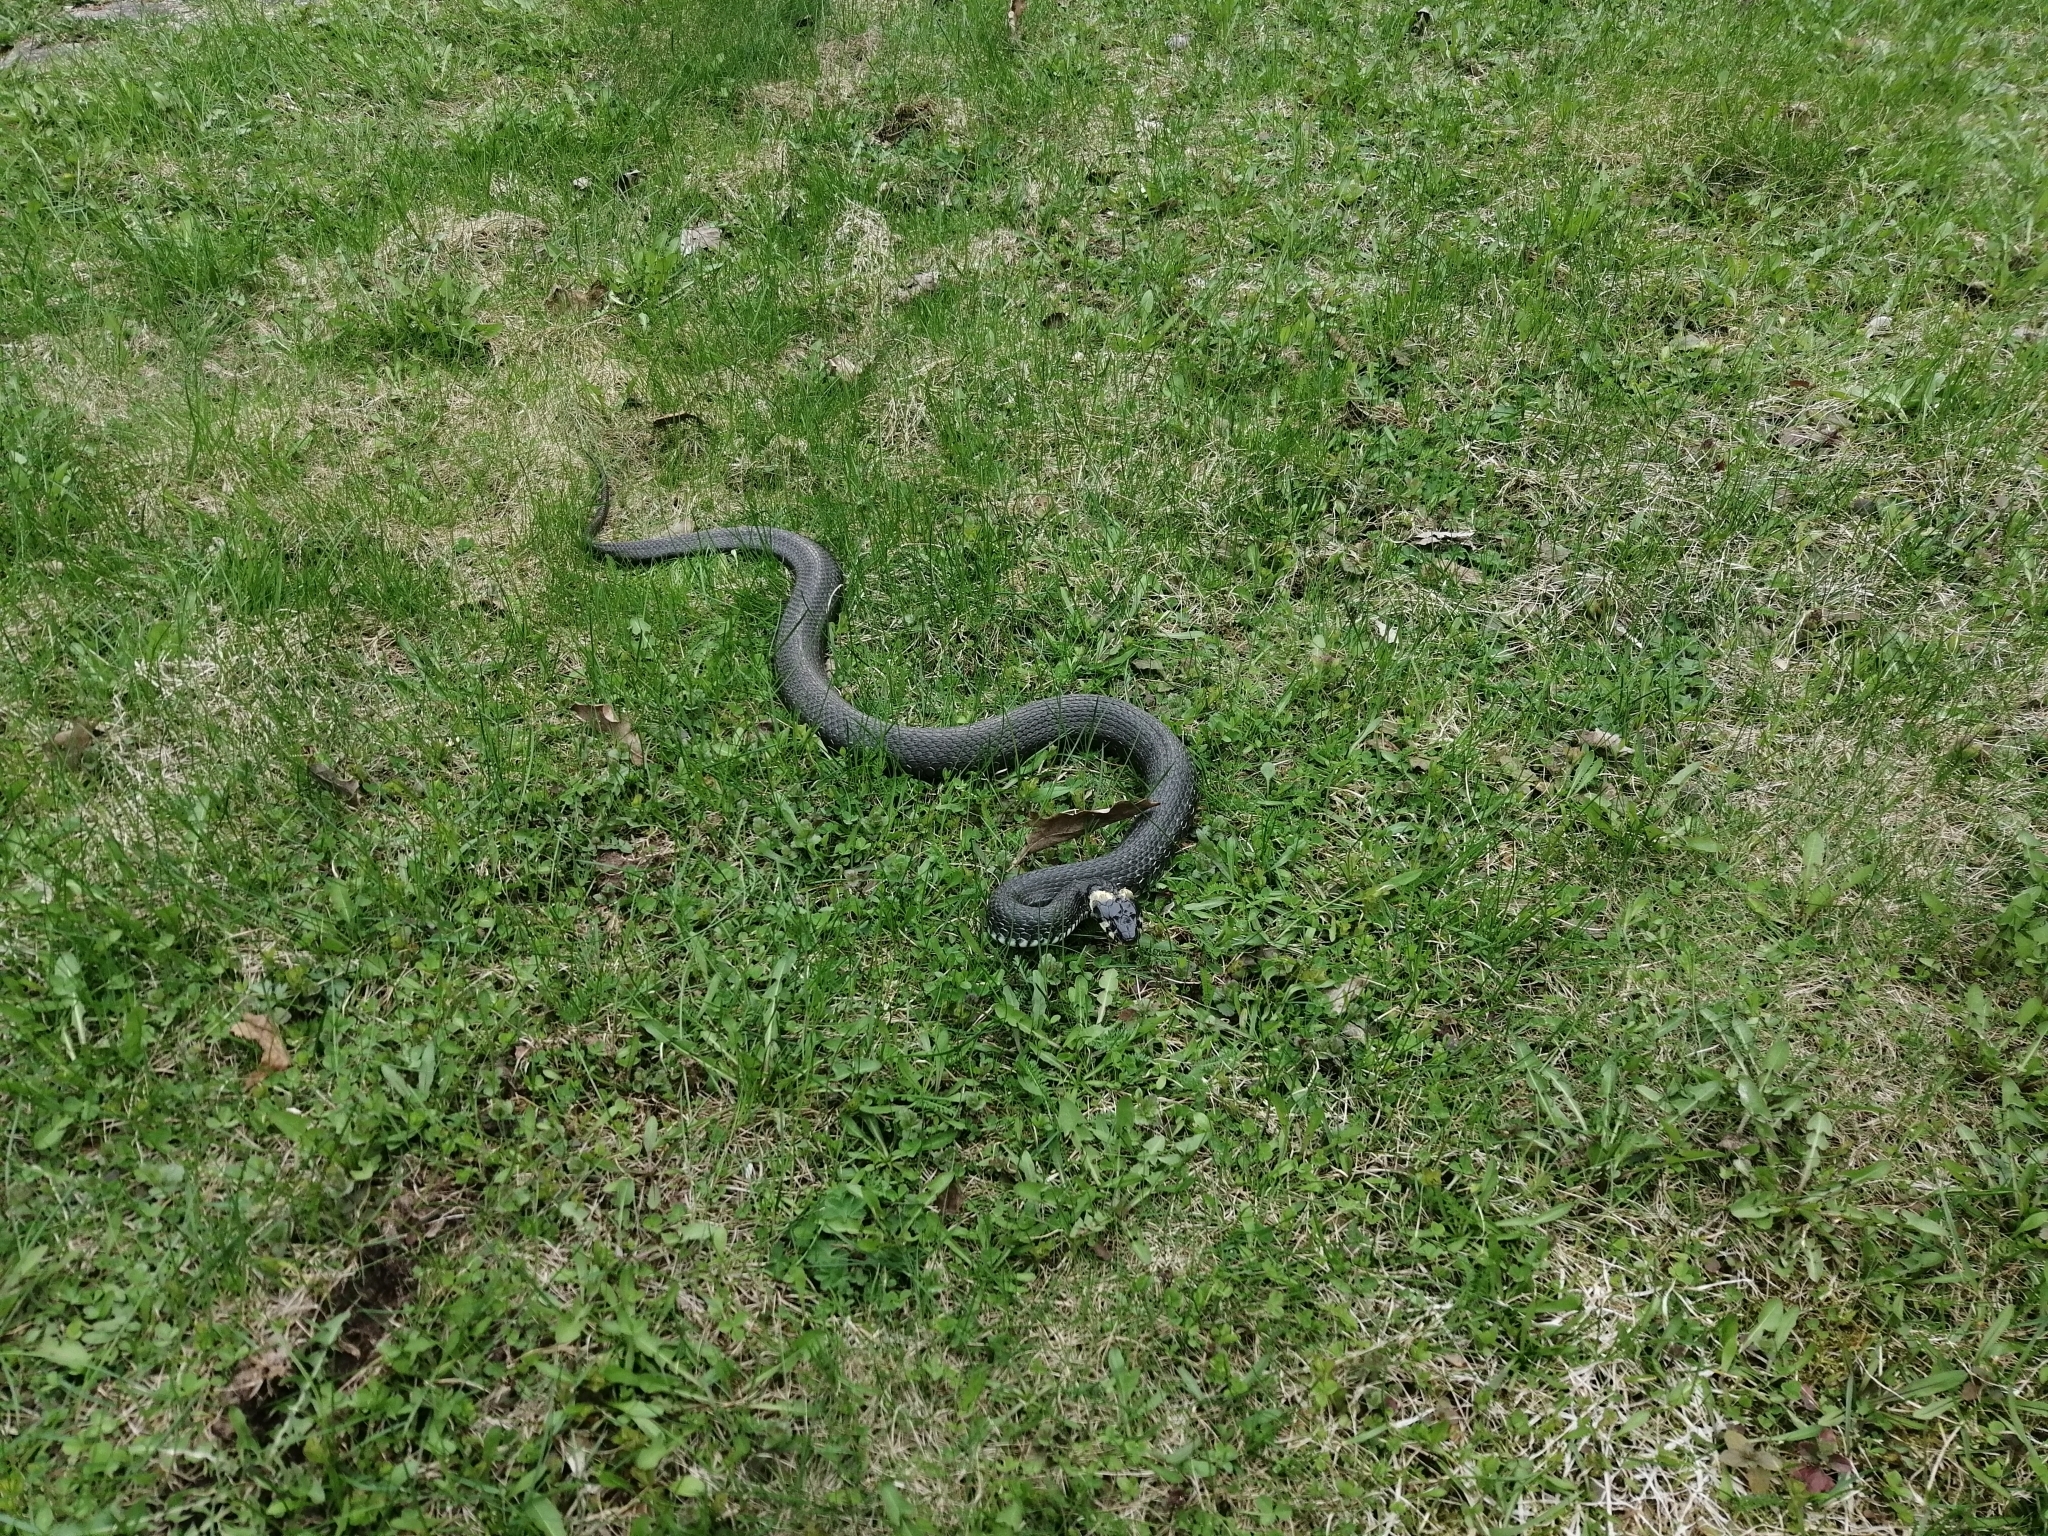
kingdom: Animalia
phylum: Chordata
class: Squamata
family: Colubridae
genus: Natrix
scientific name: Natrix natrix
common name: Grass snake
